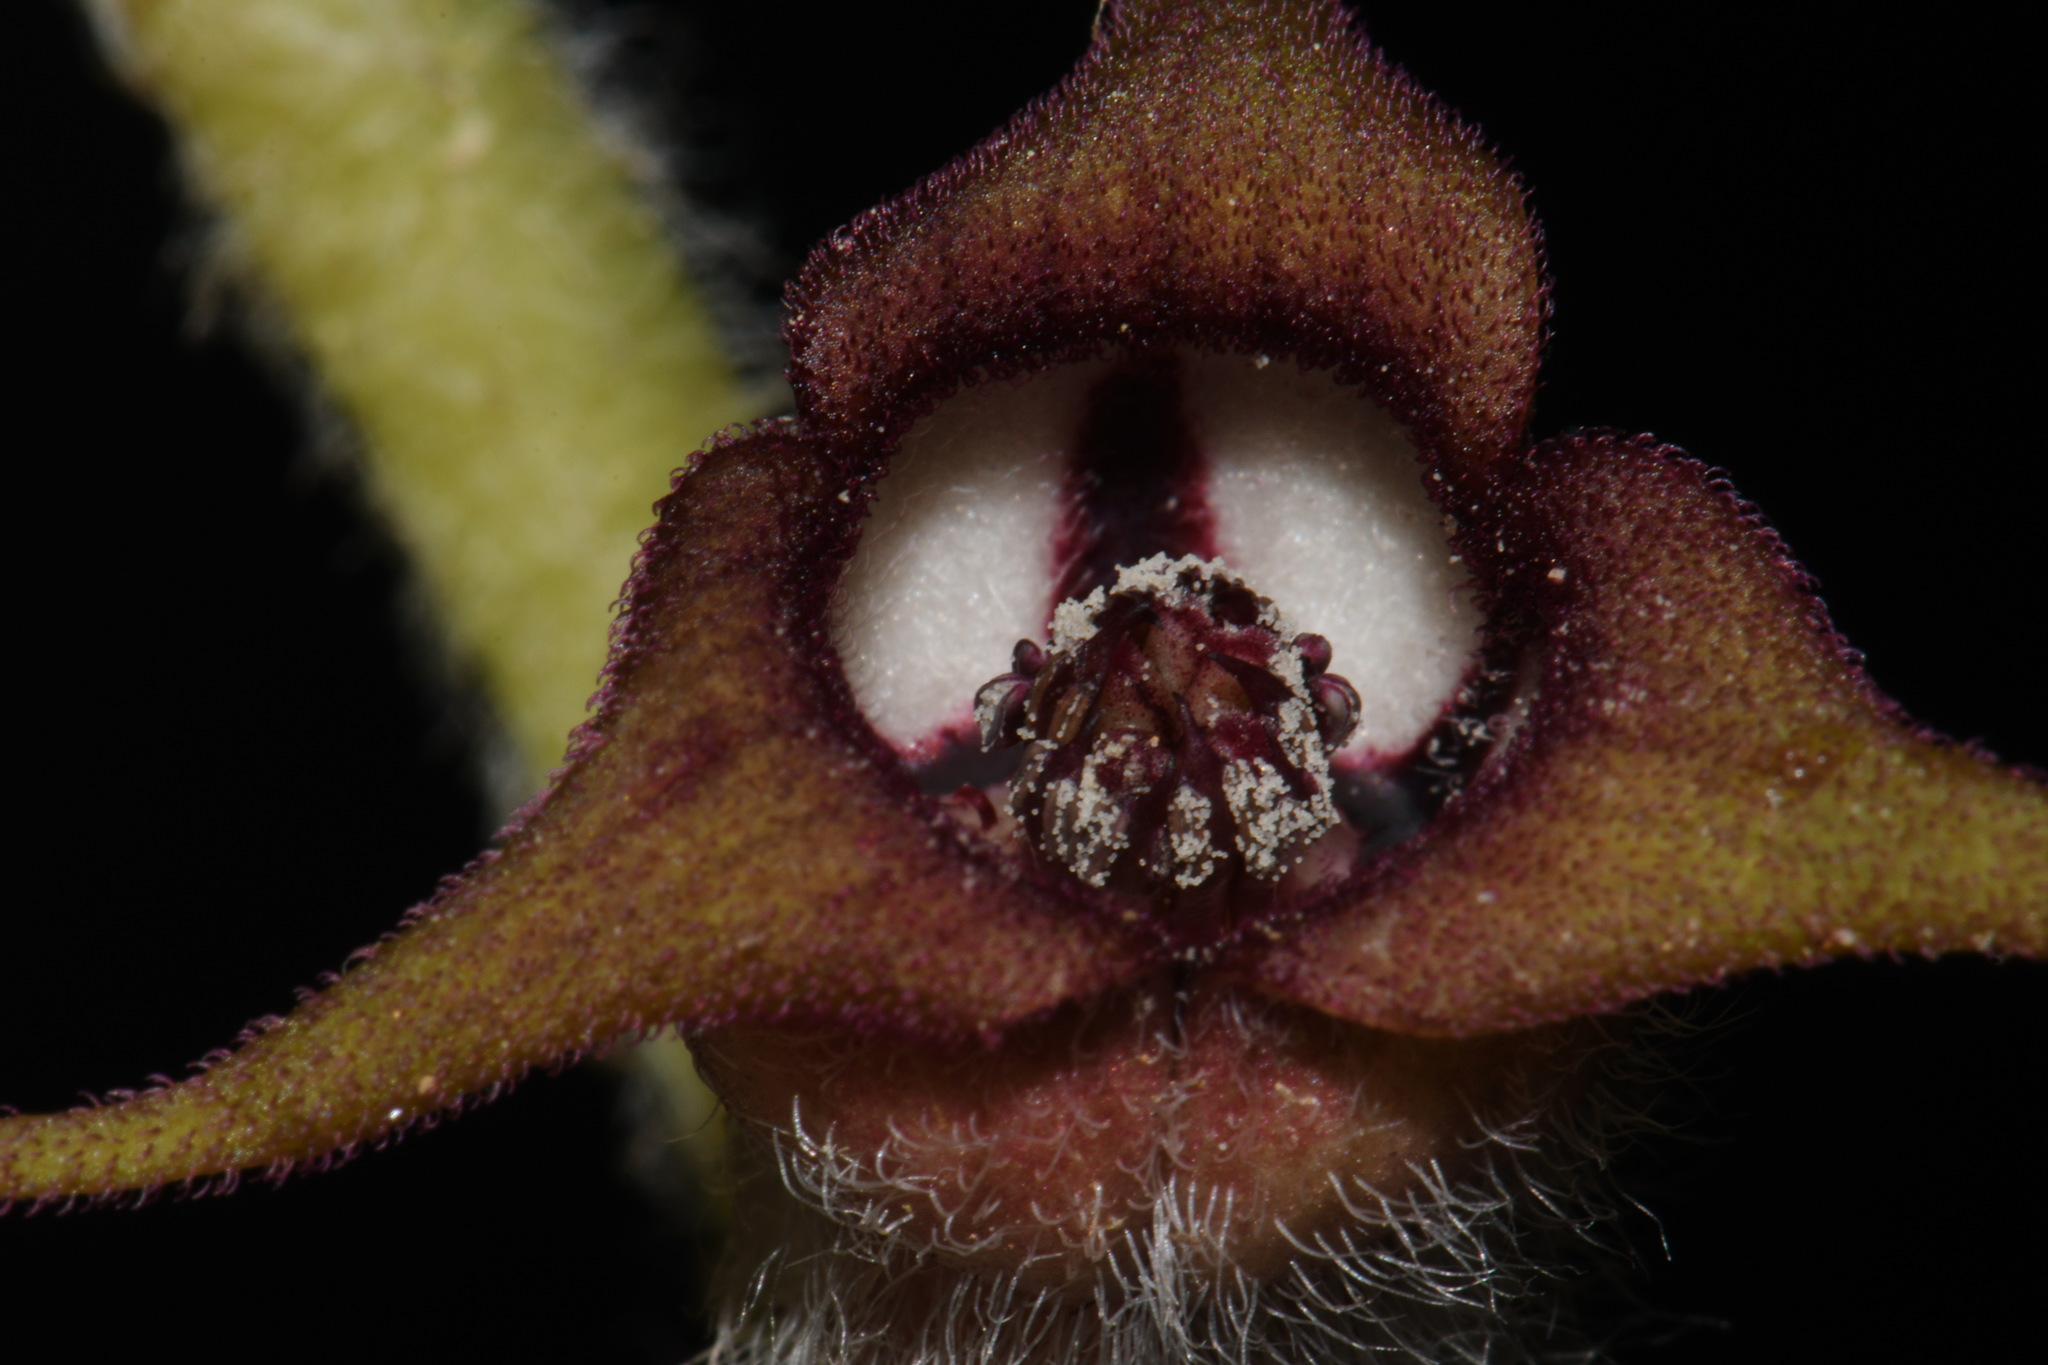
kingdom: Plantae
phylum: Tracheophyta
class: Magnoliopsida
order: Piperales
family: Aristolochiaceae
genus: Asarum
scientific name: Asarum canadense
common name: Wild ginger
